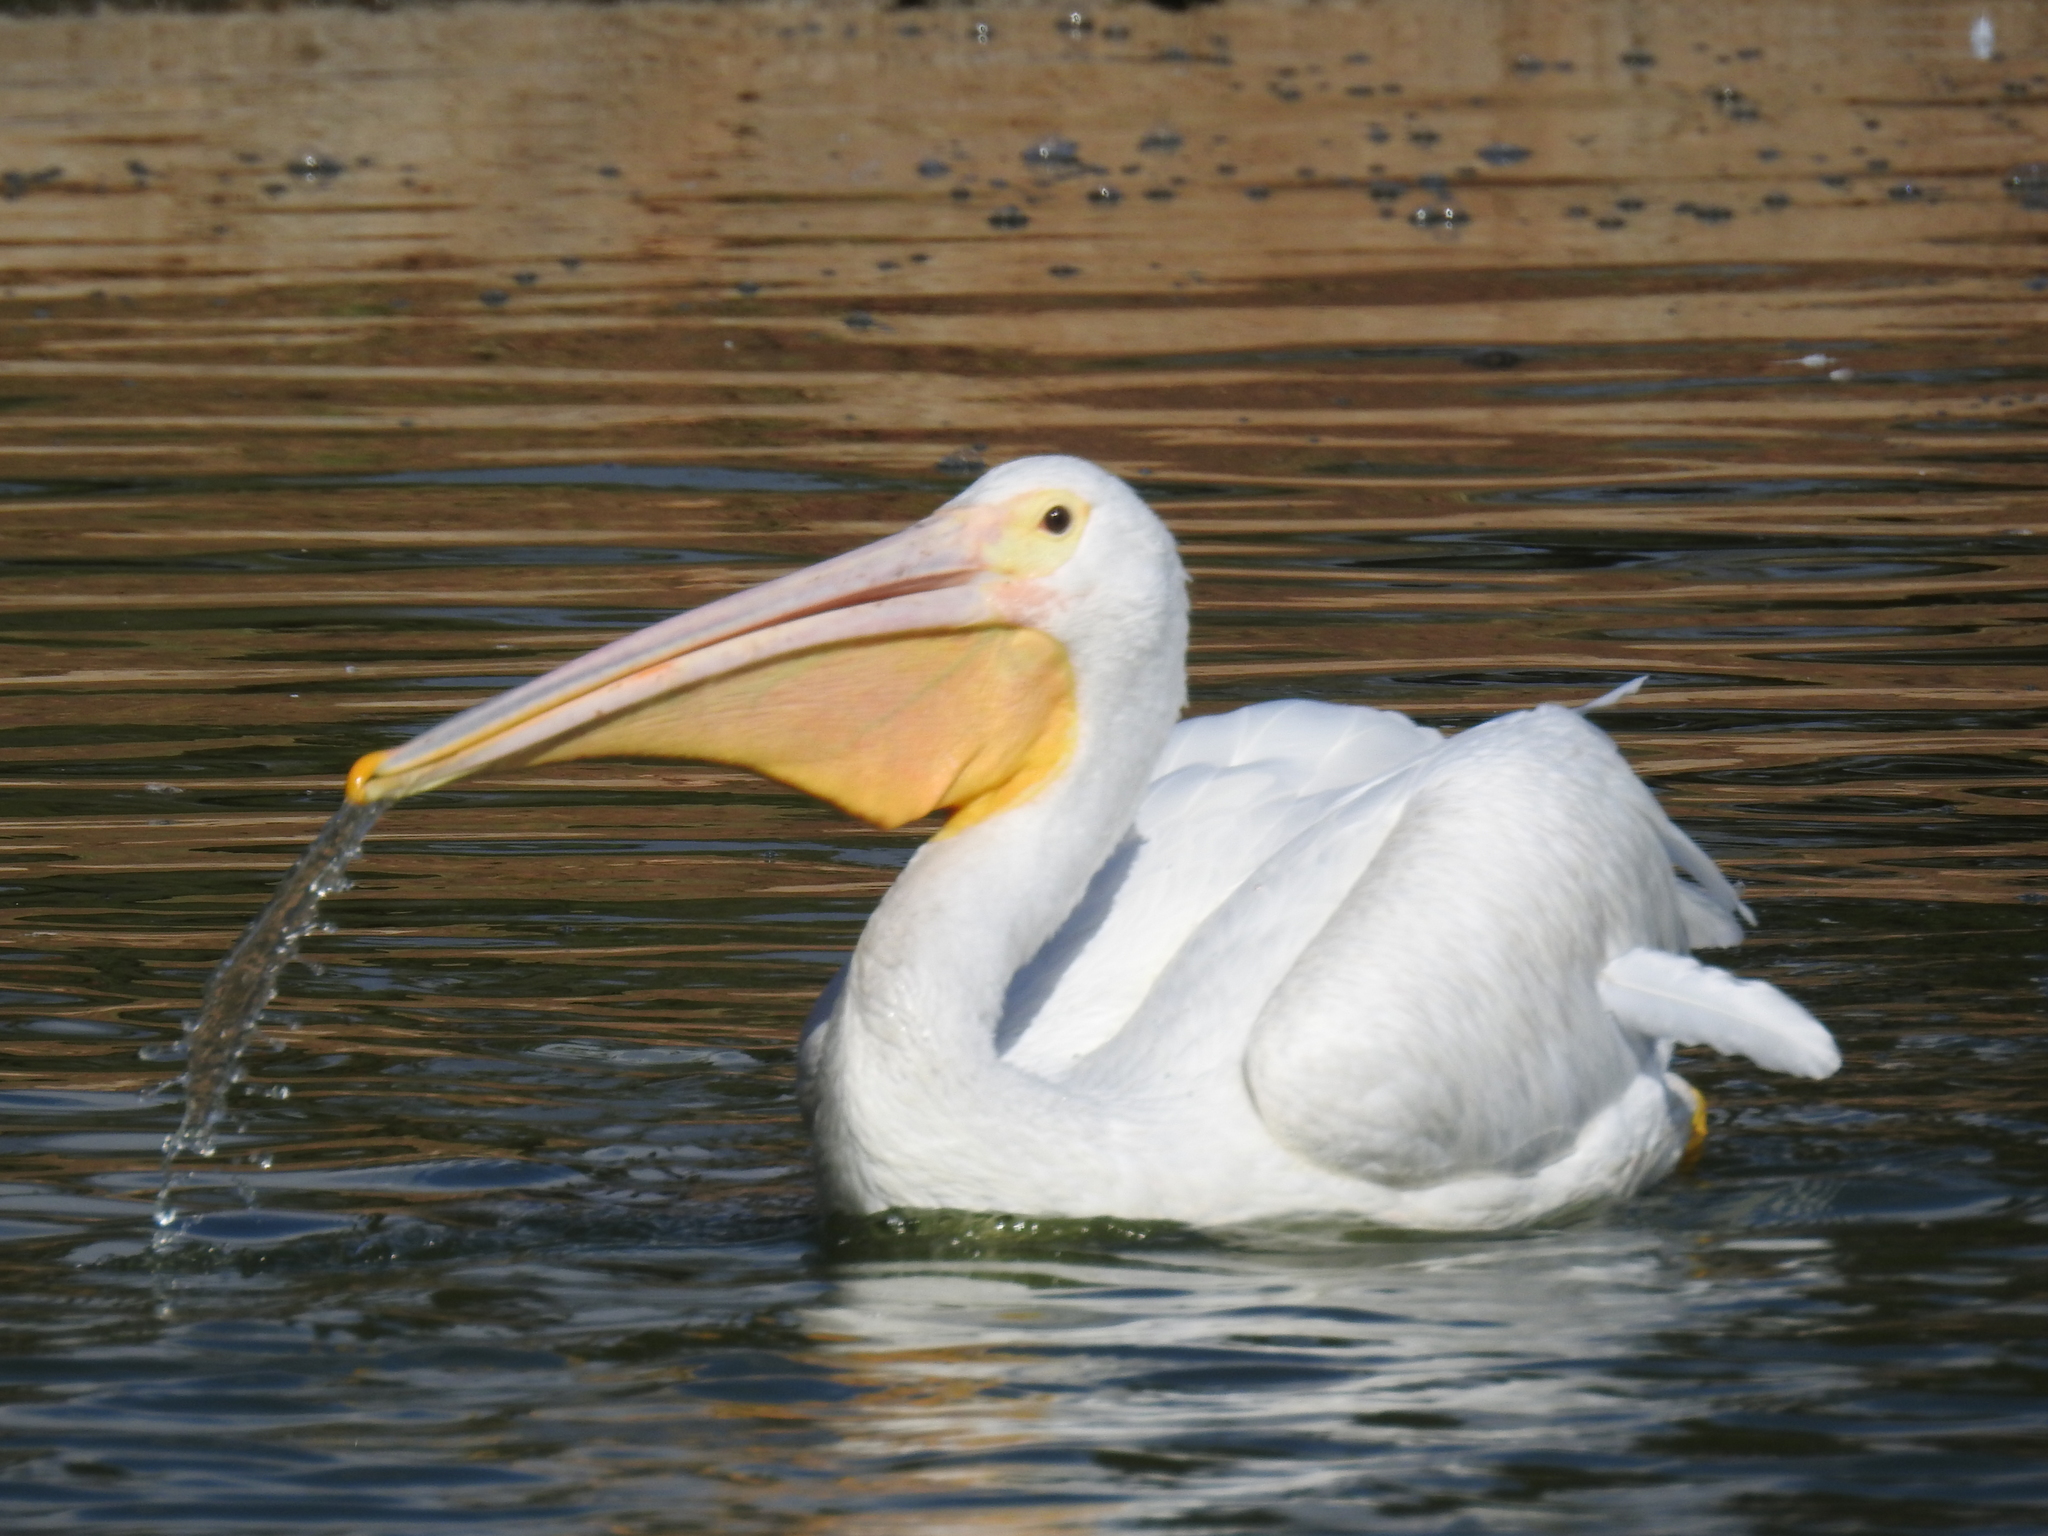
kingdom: Animalia
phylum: Chordata
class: Aves
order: Pelecaniformes
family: Pelecanidae
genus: Pelecanus
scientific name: Pelecanus erythrorhynchos
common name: American white pelican
